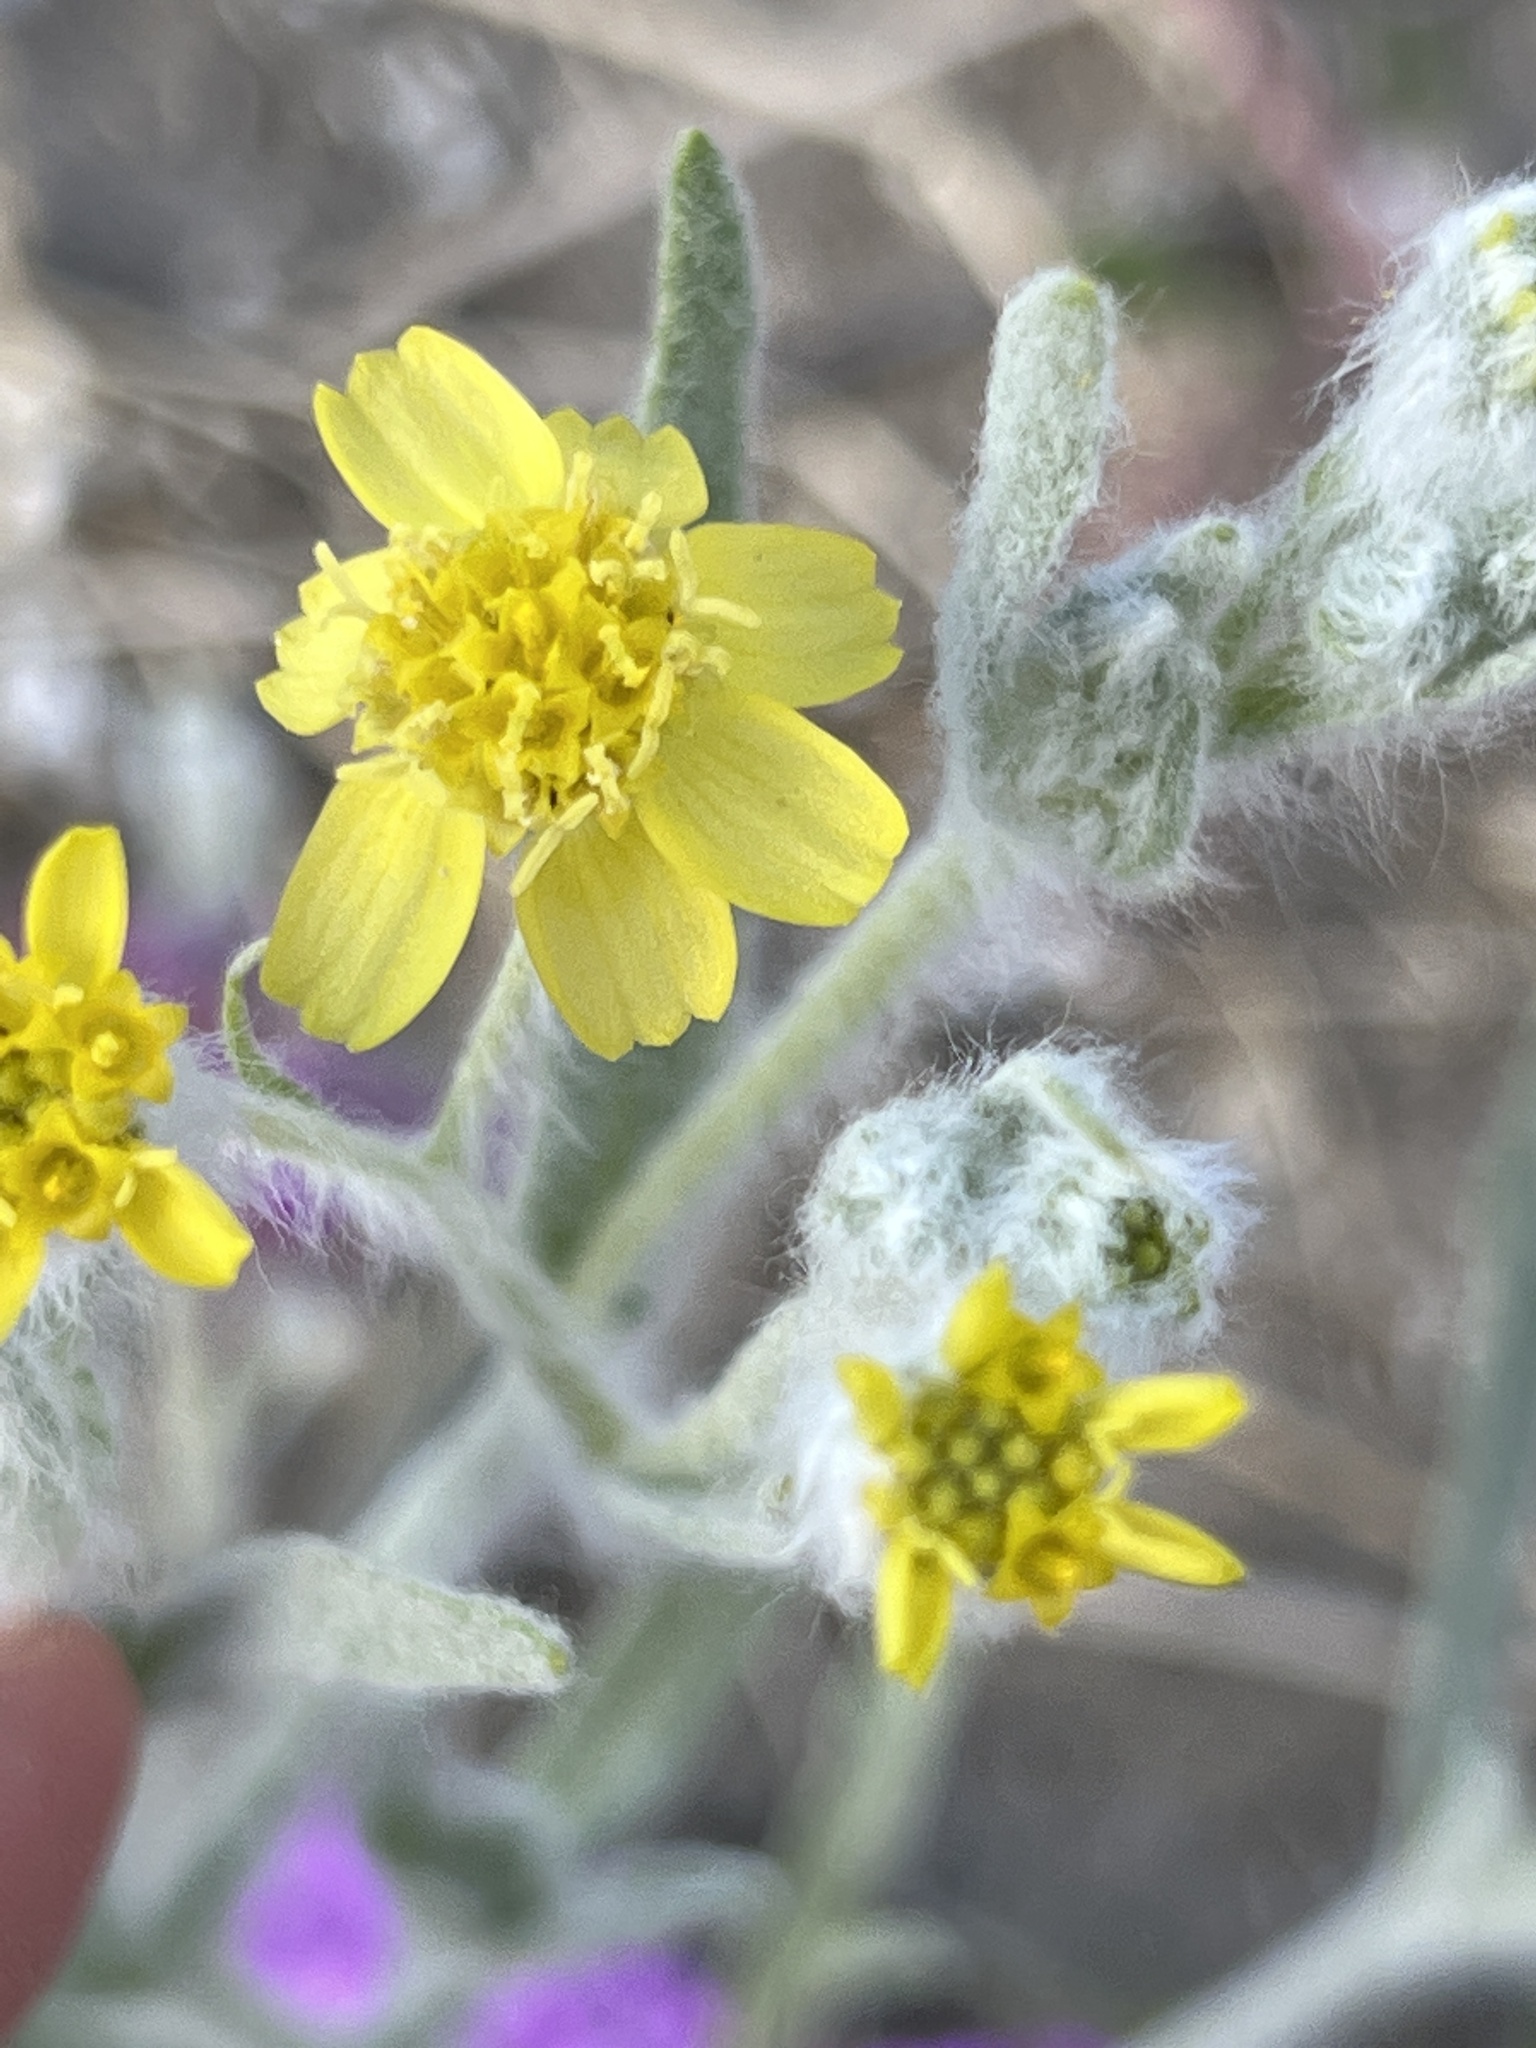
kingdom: Plantae
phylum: Tracheophyta
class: Magnoliopsida
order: Asterales
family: Asteraceae
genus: Baileya
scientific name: Baileya pauciradiata
